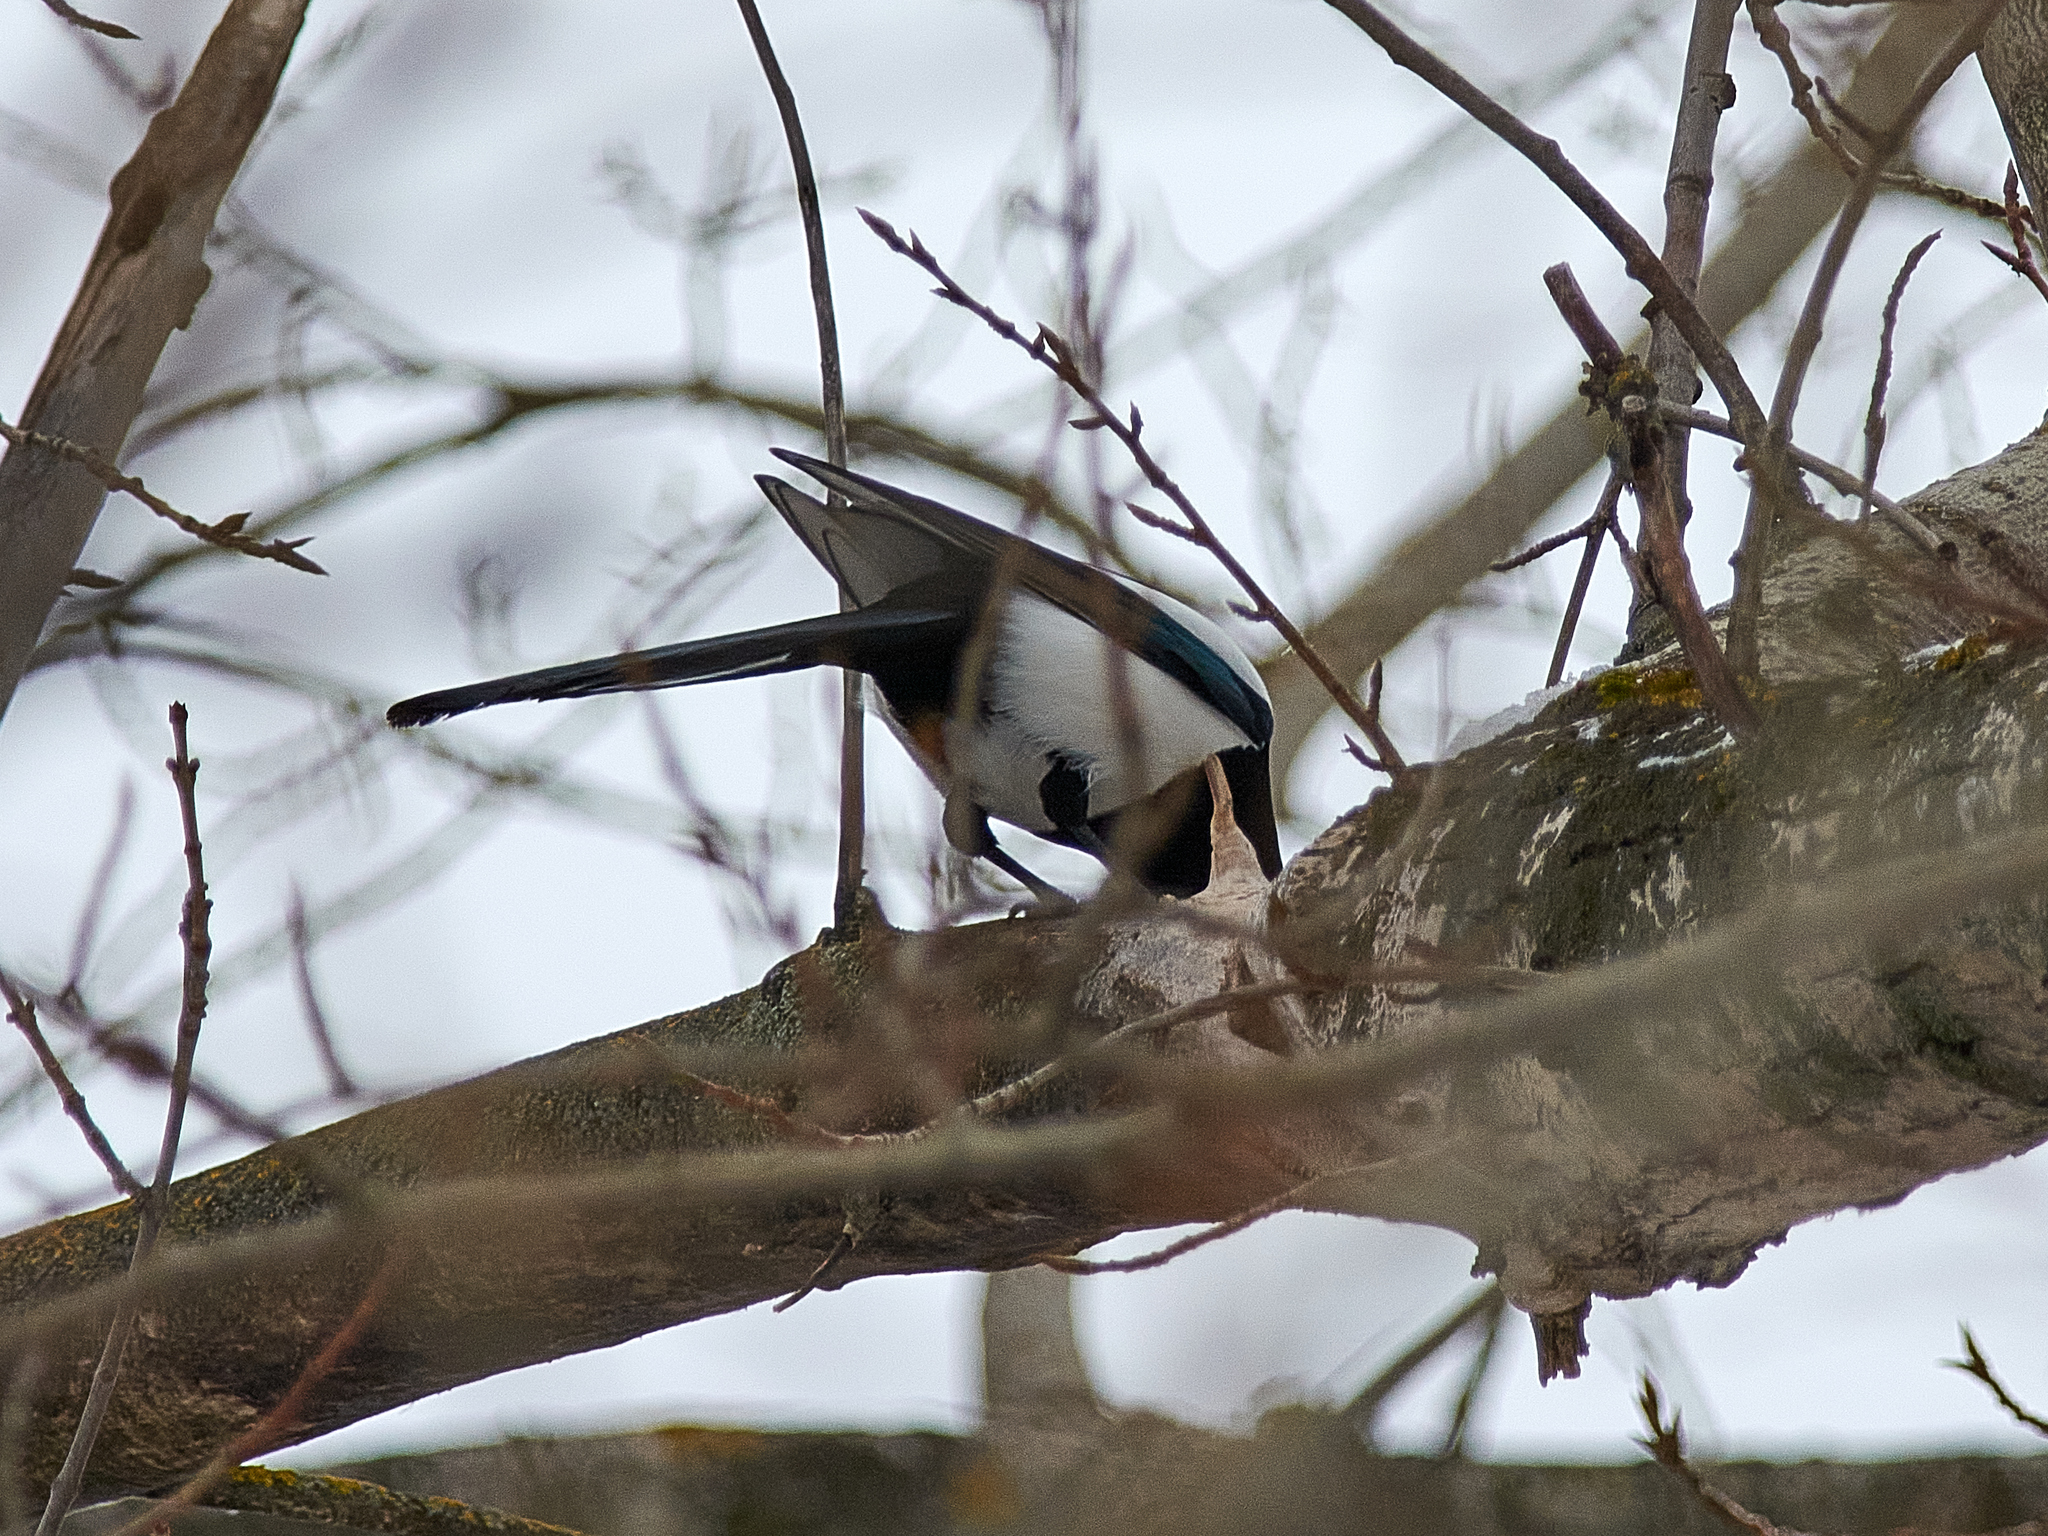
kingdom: Animalia
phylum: Chordata
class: Aves
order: Passeriformes
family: Corvidae
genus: Pica
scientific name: Pica pica
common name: Eurasian magpie
